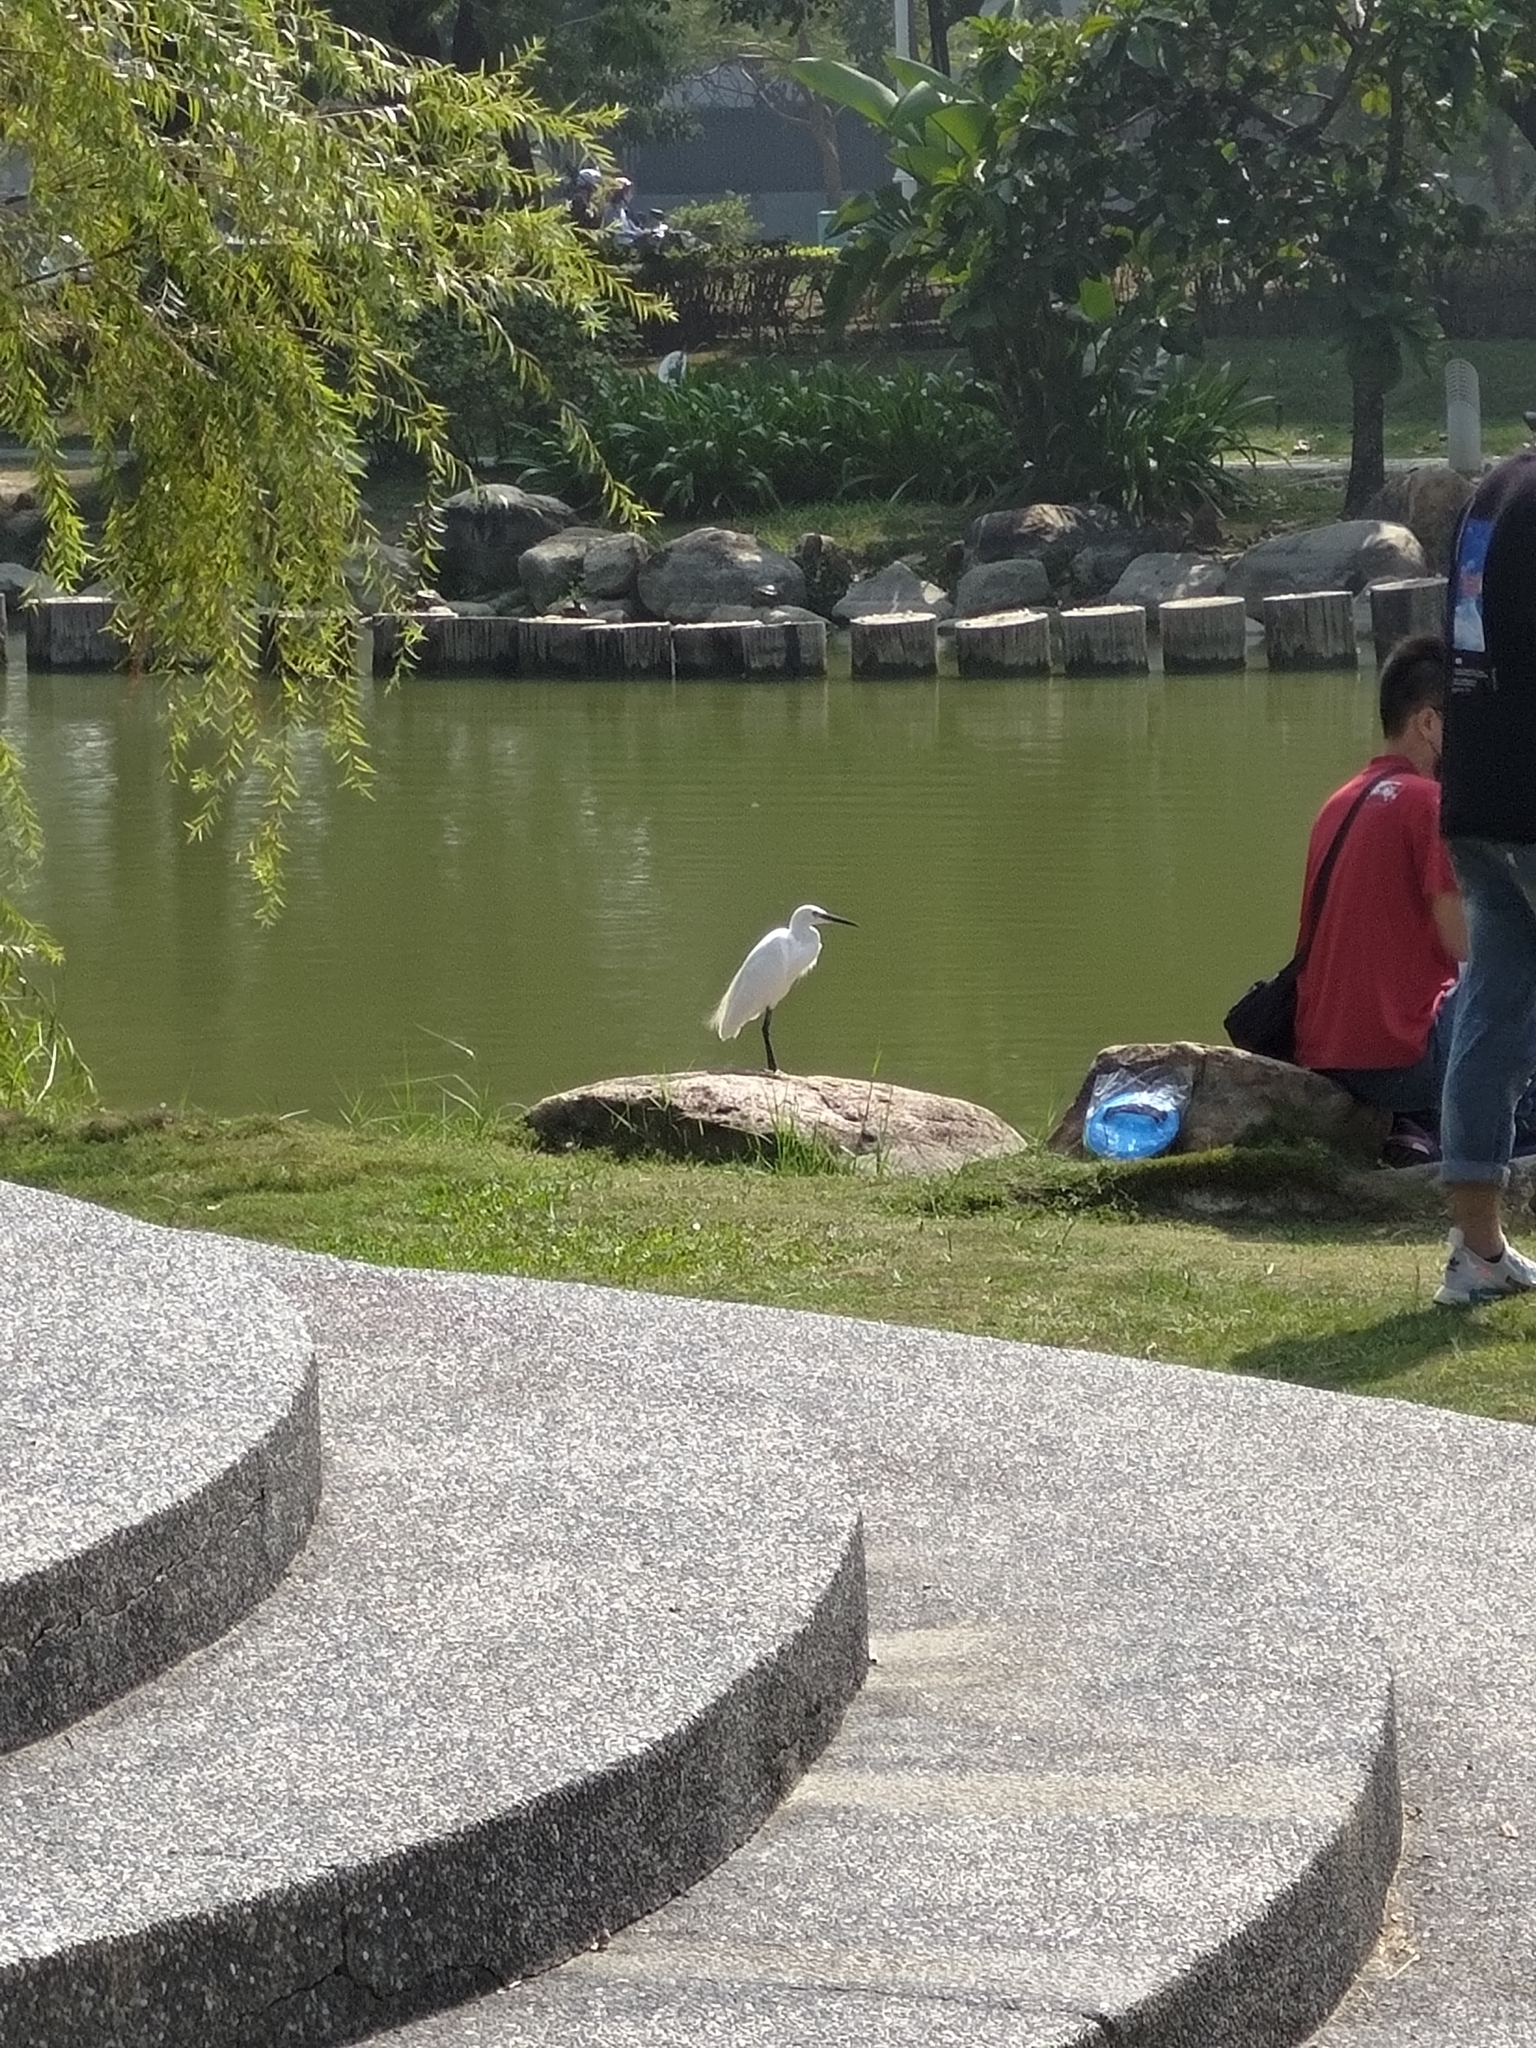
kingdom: Animalia
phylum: Chordata
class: Aves
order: Pelecaniformes
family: Ardeidae
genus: Egretta
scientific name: Egretta garzetta
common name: Little egret
